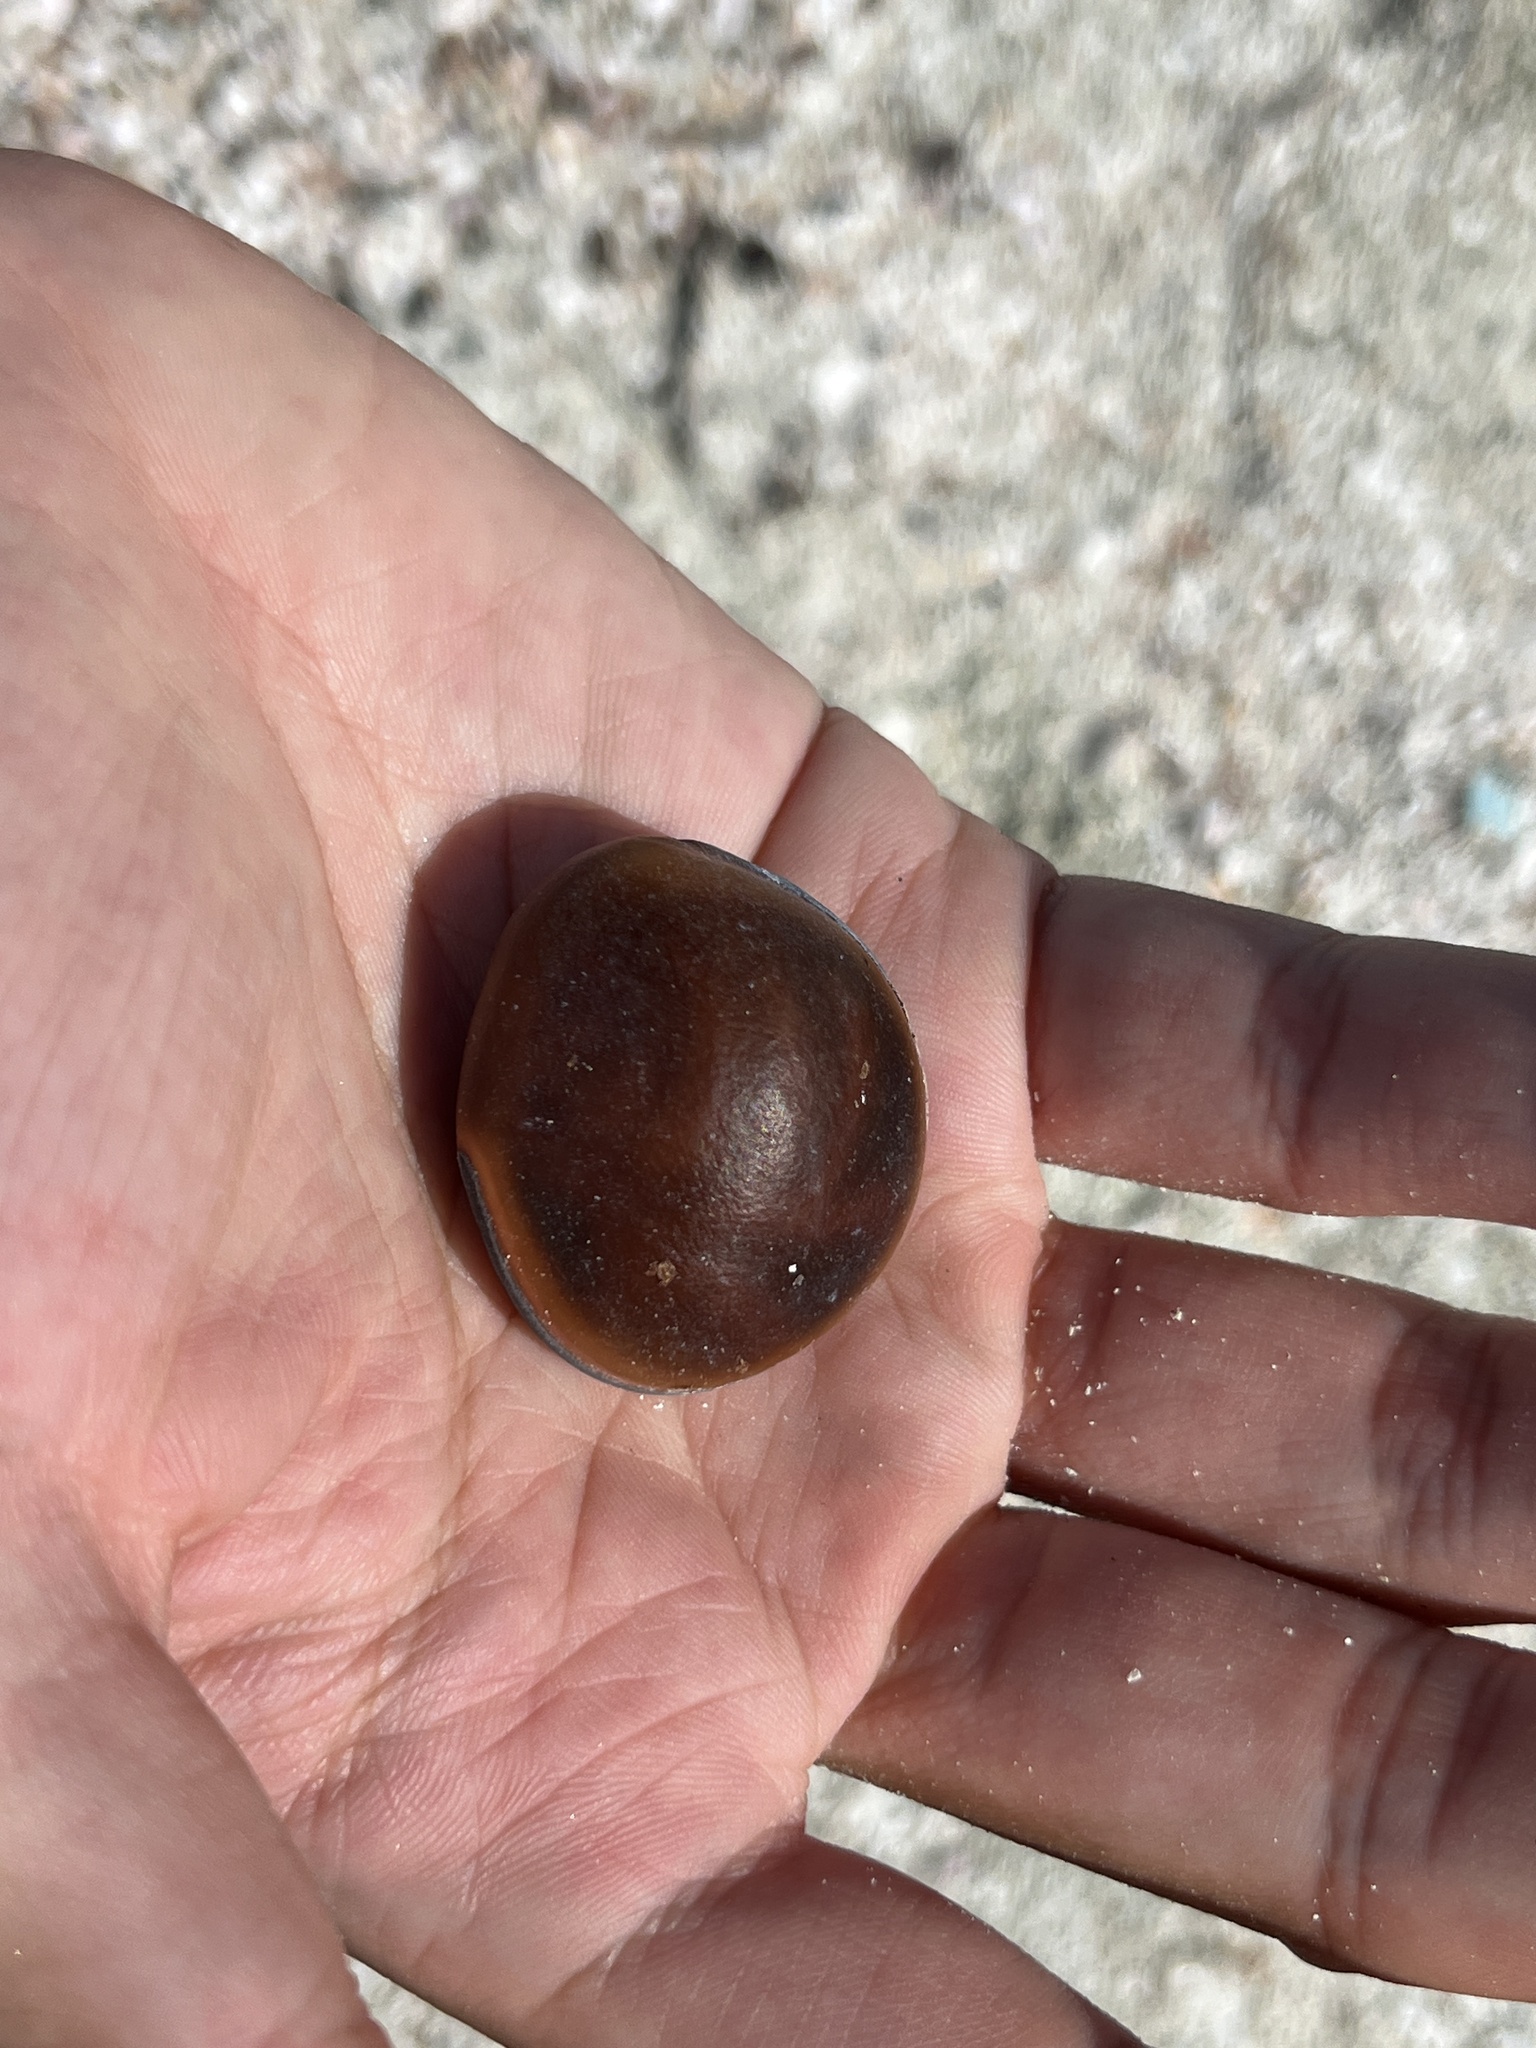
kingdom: Plantae
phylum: Tracheophyta
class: Magnoliopsida
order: Fabales
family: Fabaceae
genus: Mucuna
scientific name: Mucuna urens
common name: Red hamburger bean
